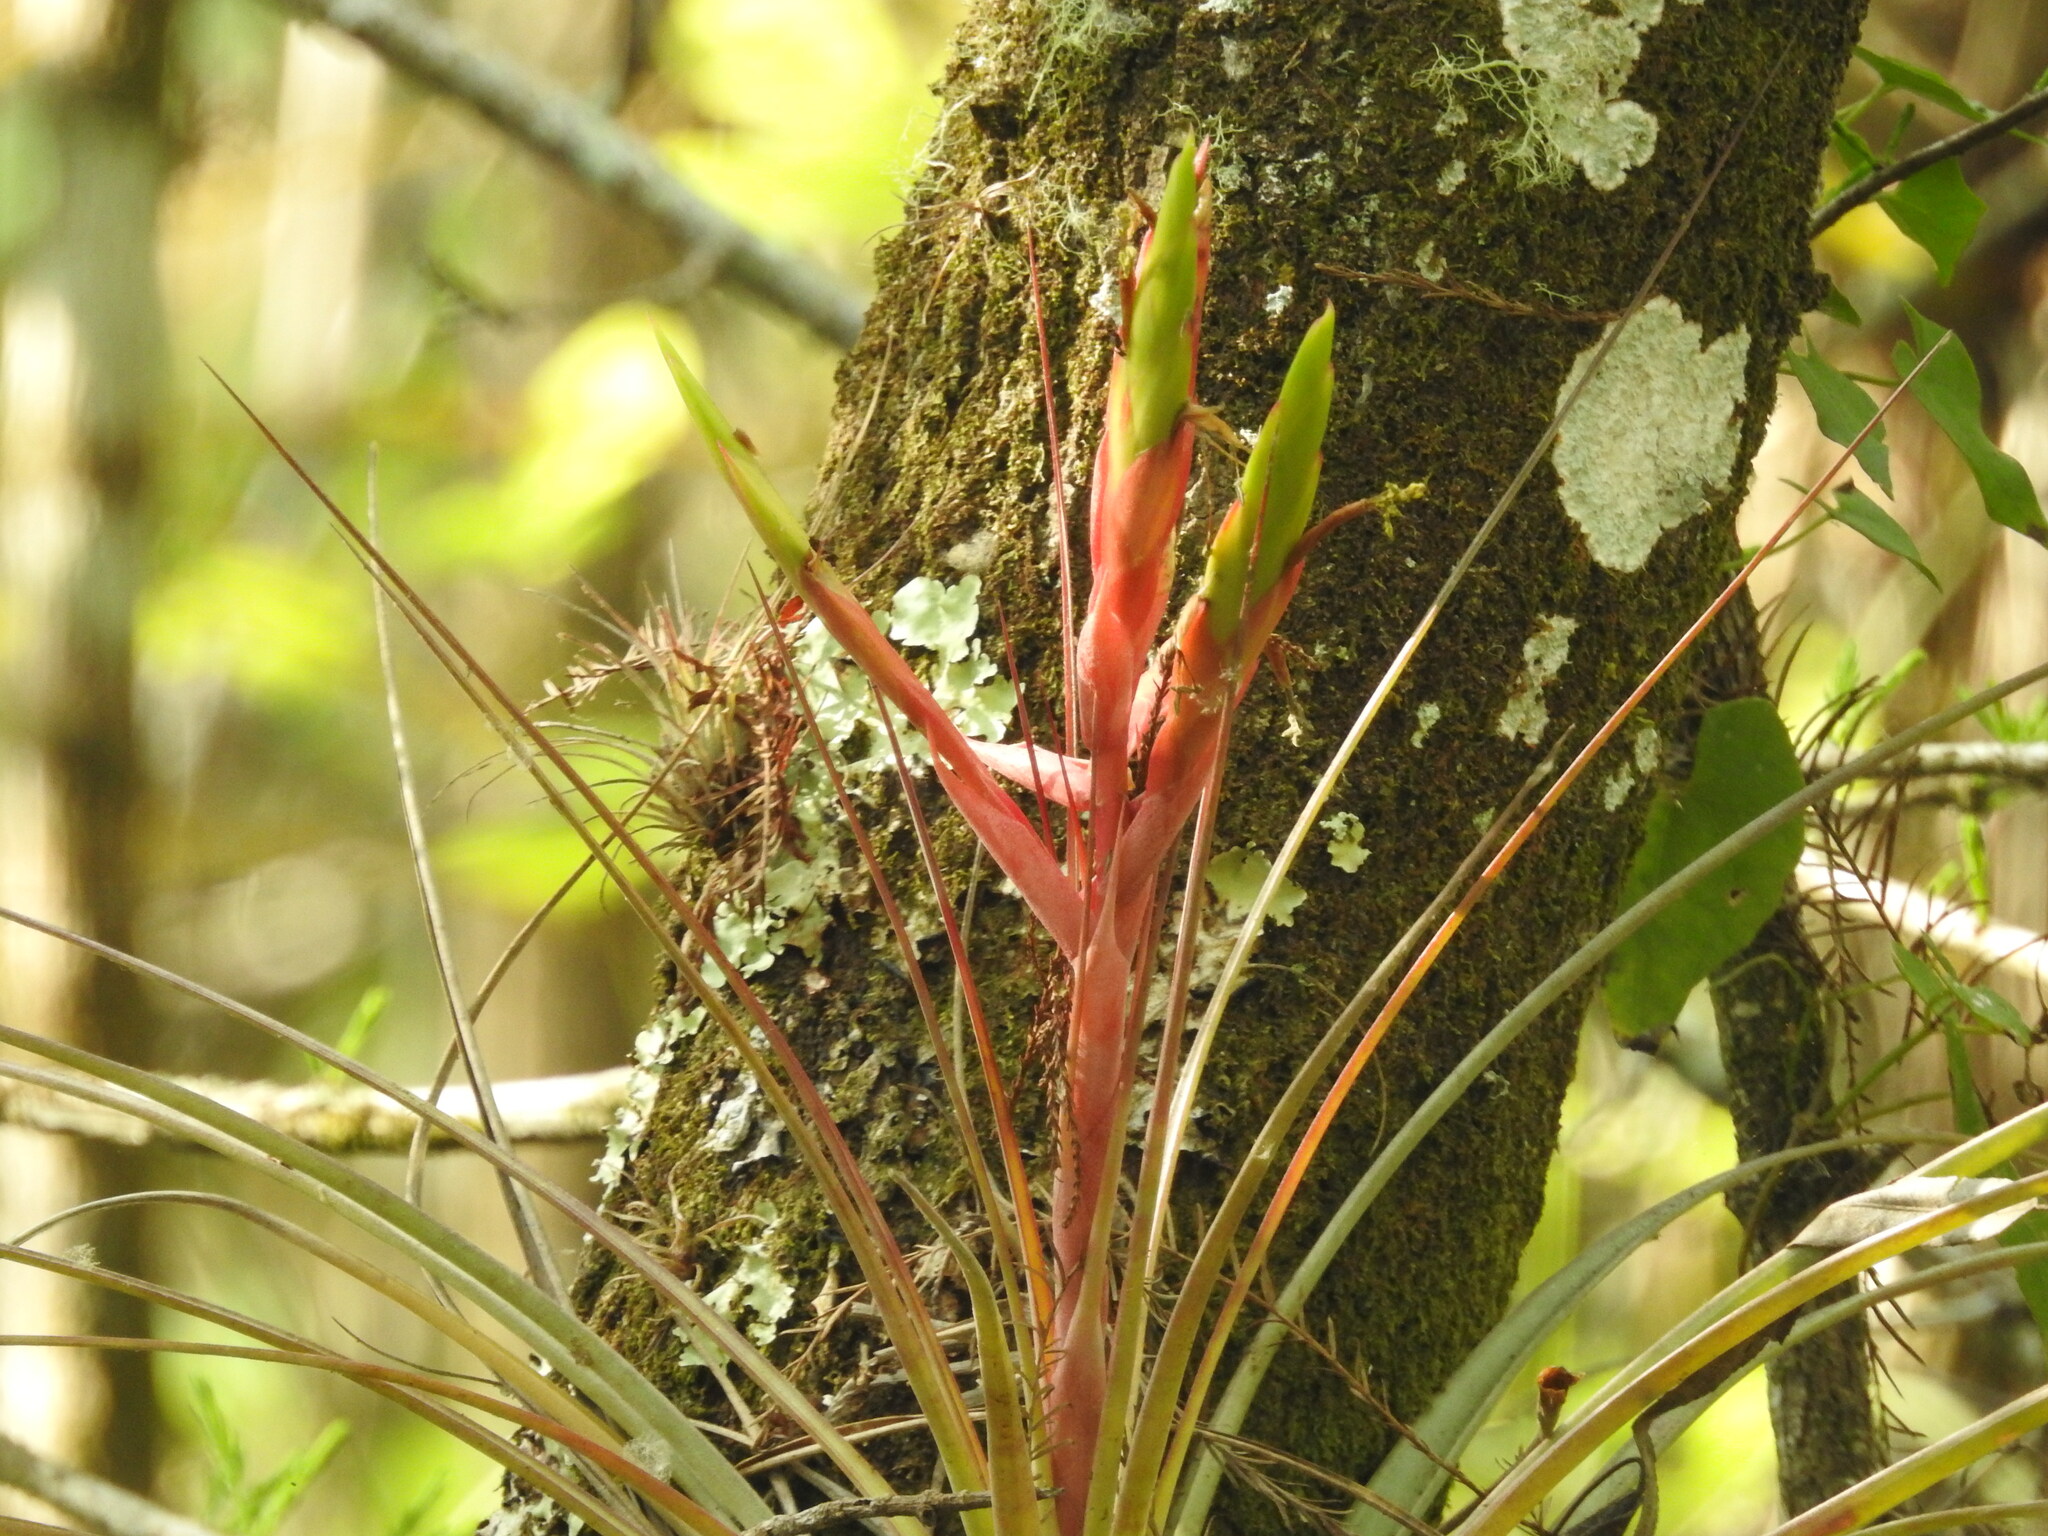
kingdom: Plantae
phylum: Tracheophyta
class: Liliopsida
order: Poales
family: Bromeliaceae
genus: Tillandsia
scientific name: Tillandsia fasciculata
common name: Giant airplant
